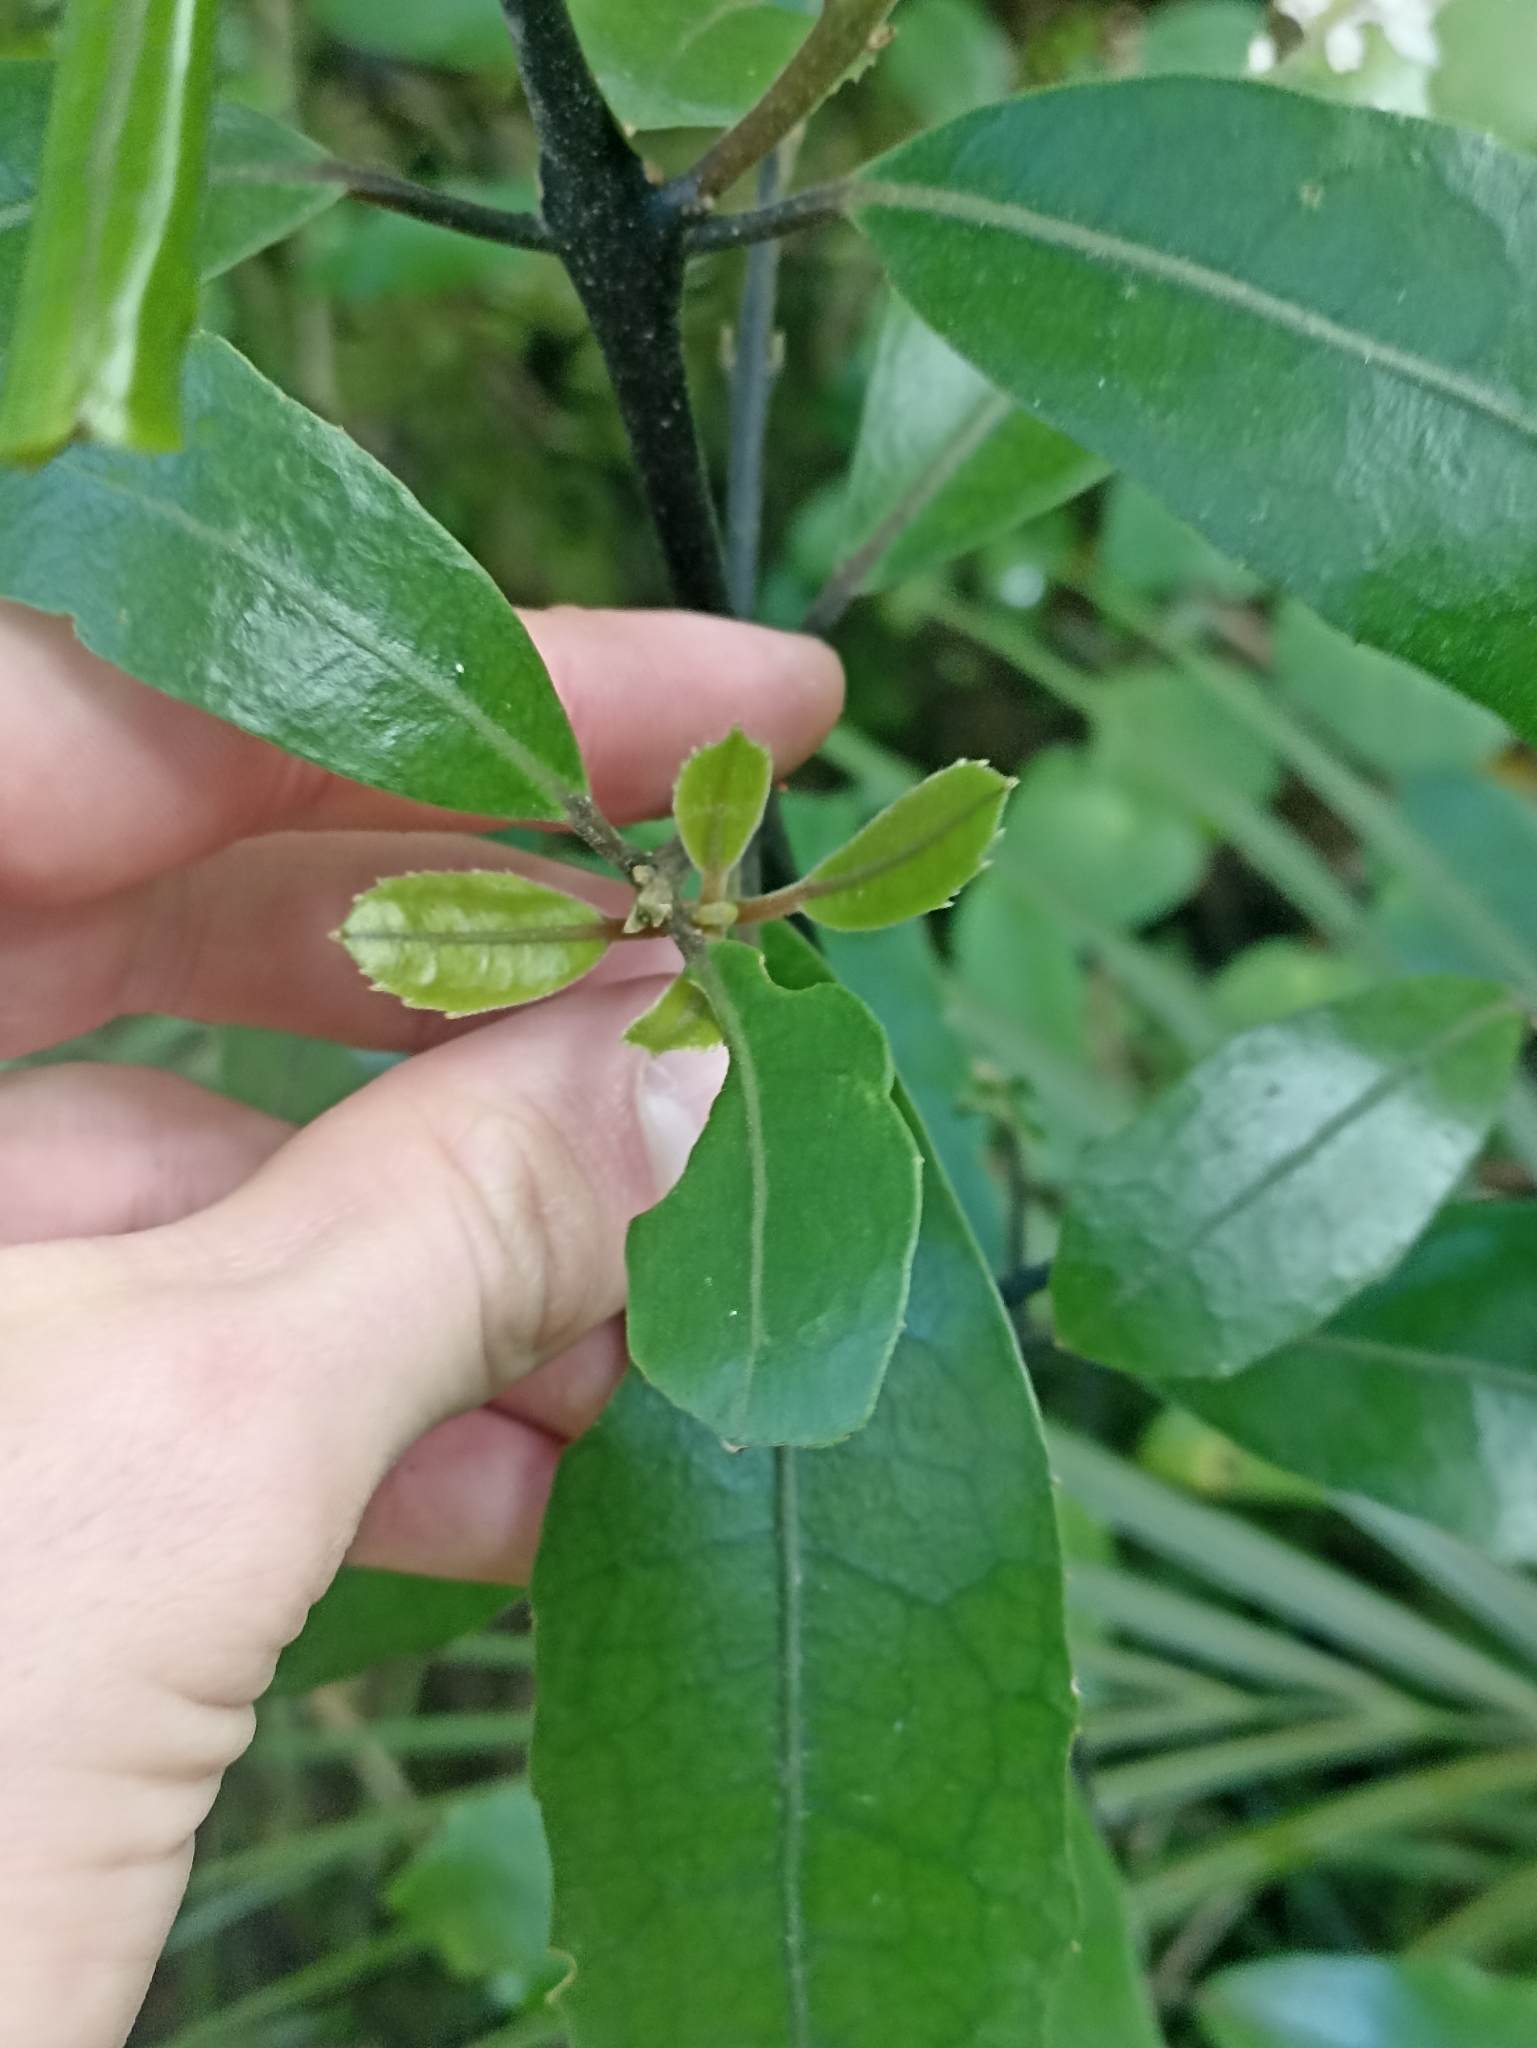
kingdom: Plantae
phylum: Tracheophyta
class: Magnoliopsida
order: Laurales
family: Monimiaceae
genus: Hedycarya
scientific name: Hedycarya arborea
